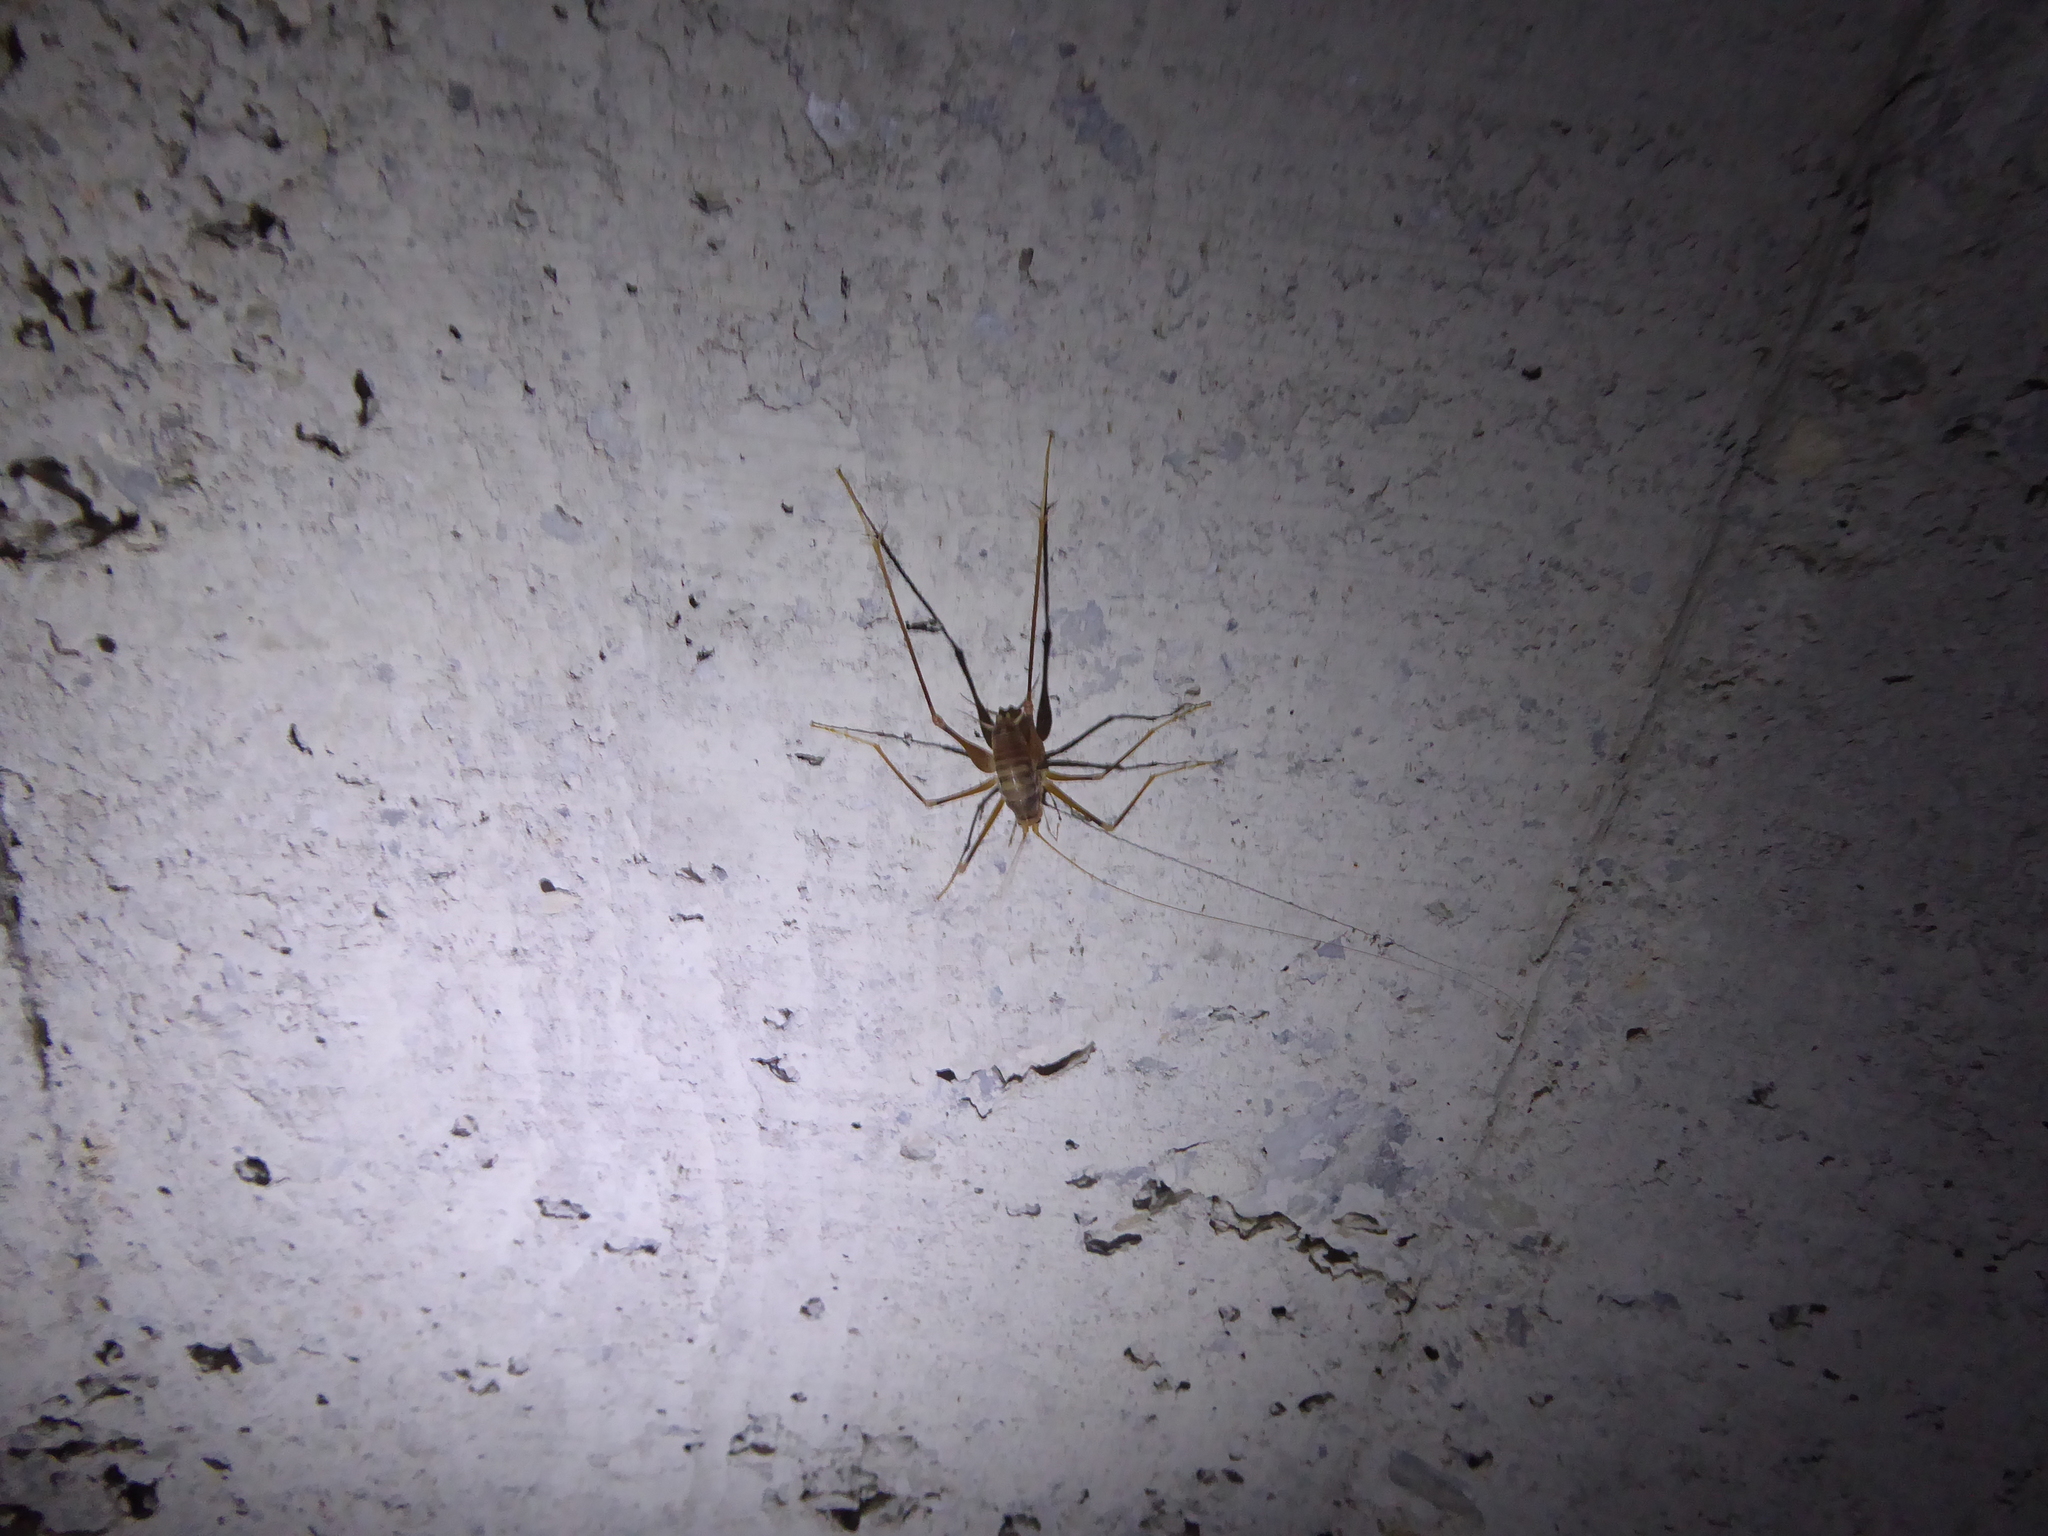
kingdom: Animalia
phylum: Arthropoda
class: Insecta
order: Orthoptera
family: Rhaphidophoridae
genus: Dolichopoda
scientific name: Dolichopoda azami
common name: Azam's cave-cricket
